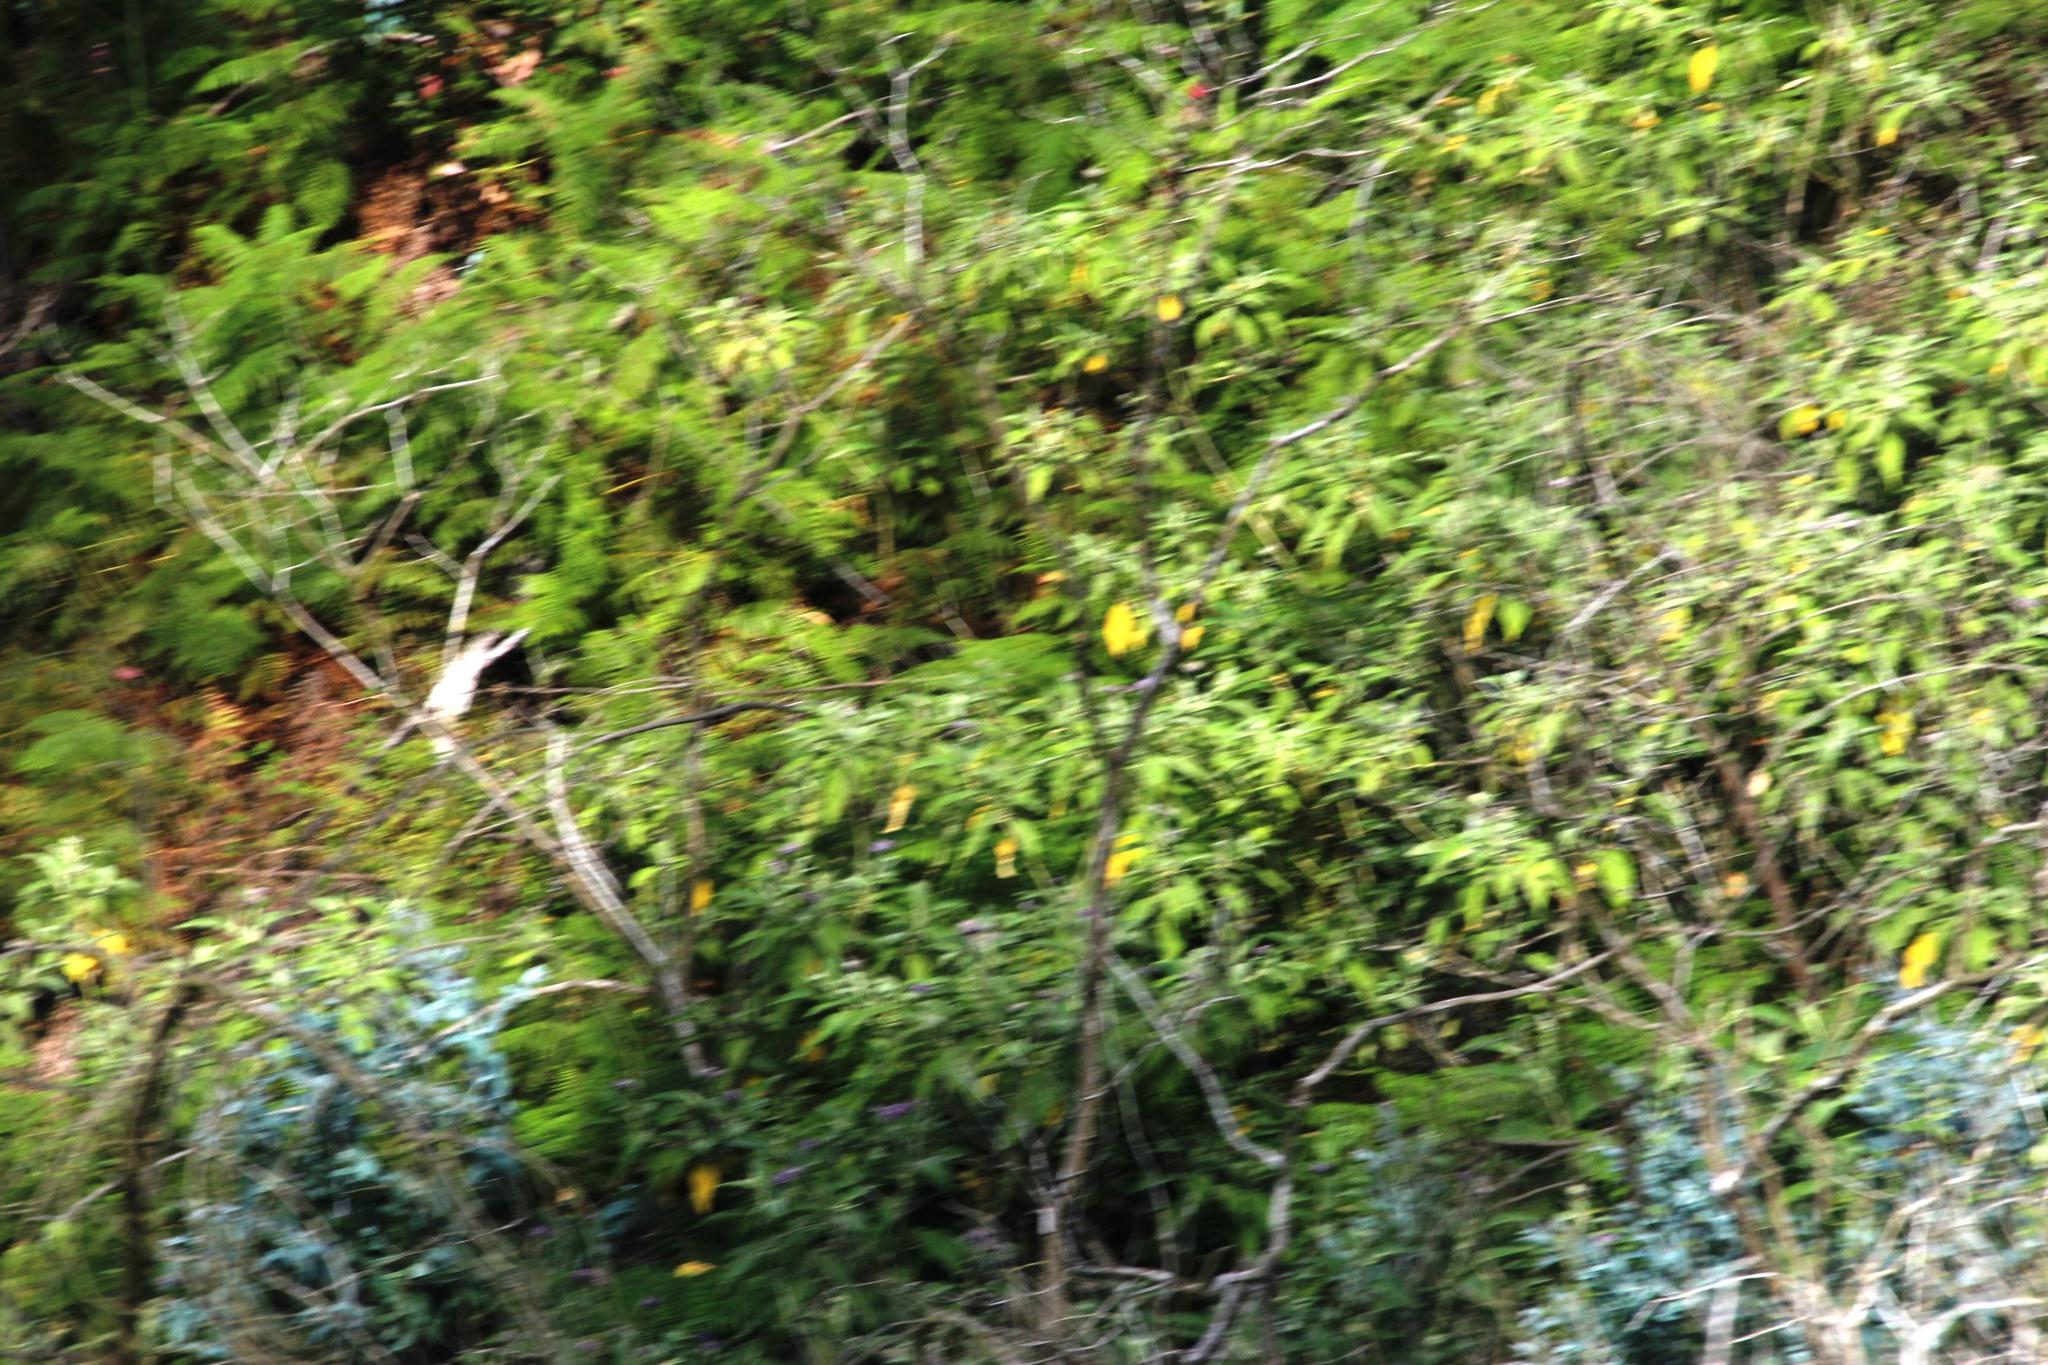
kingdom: Plantae
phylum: Tracheophyta
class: Magnoliopsida
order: Solanales
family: Solanaceae
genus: Solanum
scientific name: Solanum mauritianum
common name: Earleaf nightshade
